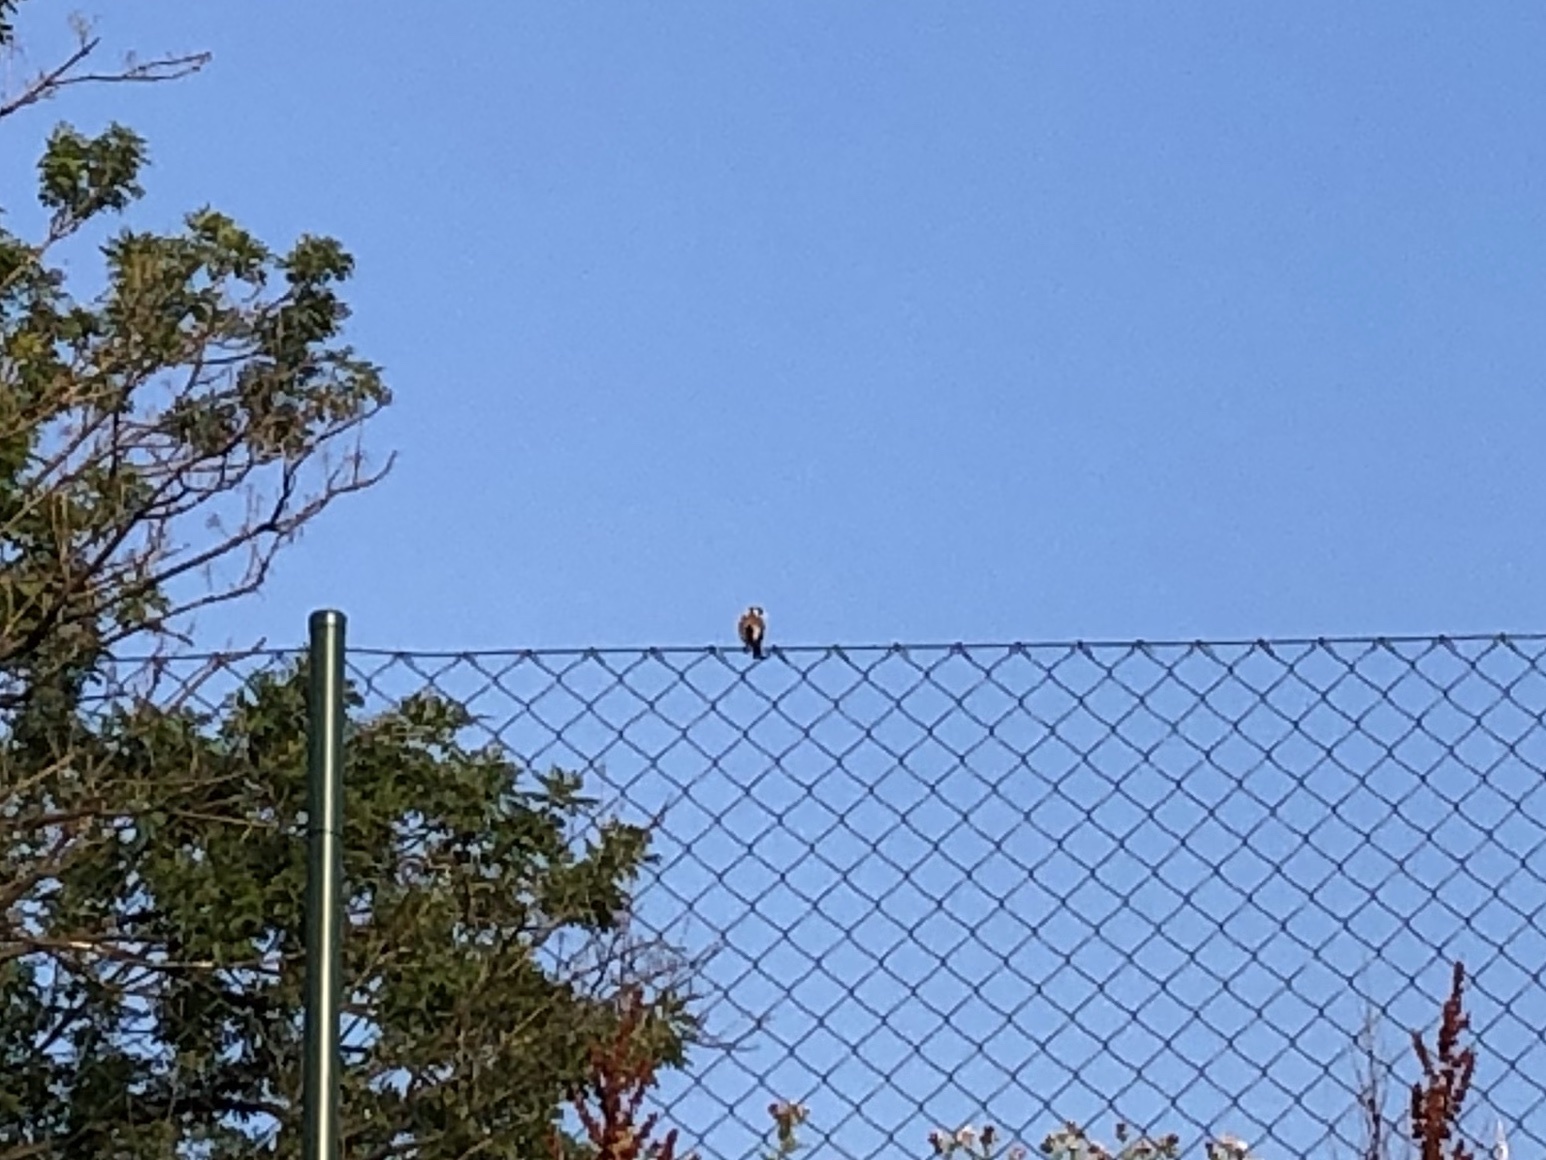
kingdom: Animalia
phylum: Chordata
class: Aves
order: Passeriformes
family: Fringillidae
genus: Carduelis
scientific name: Carduelis carduelis
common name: European goldfinch
